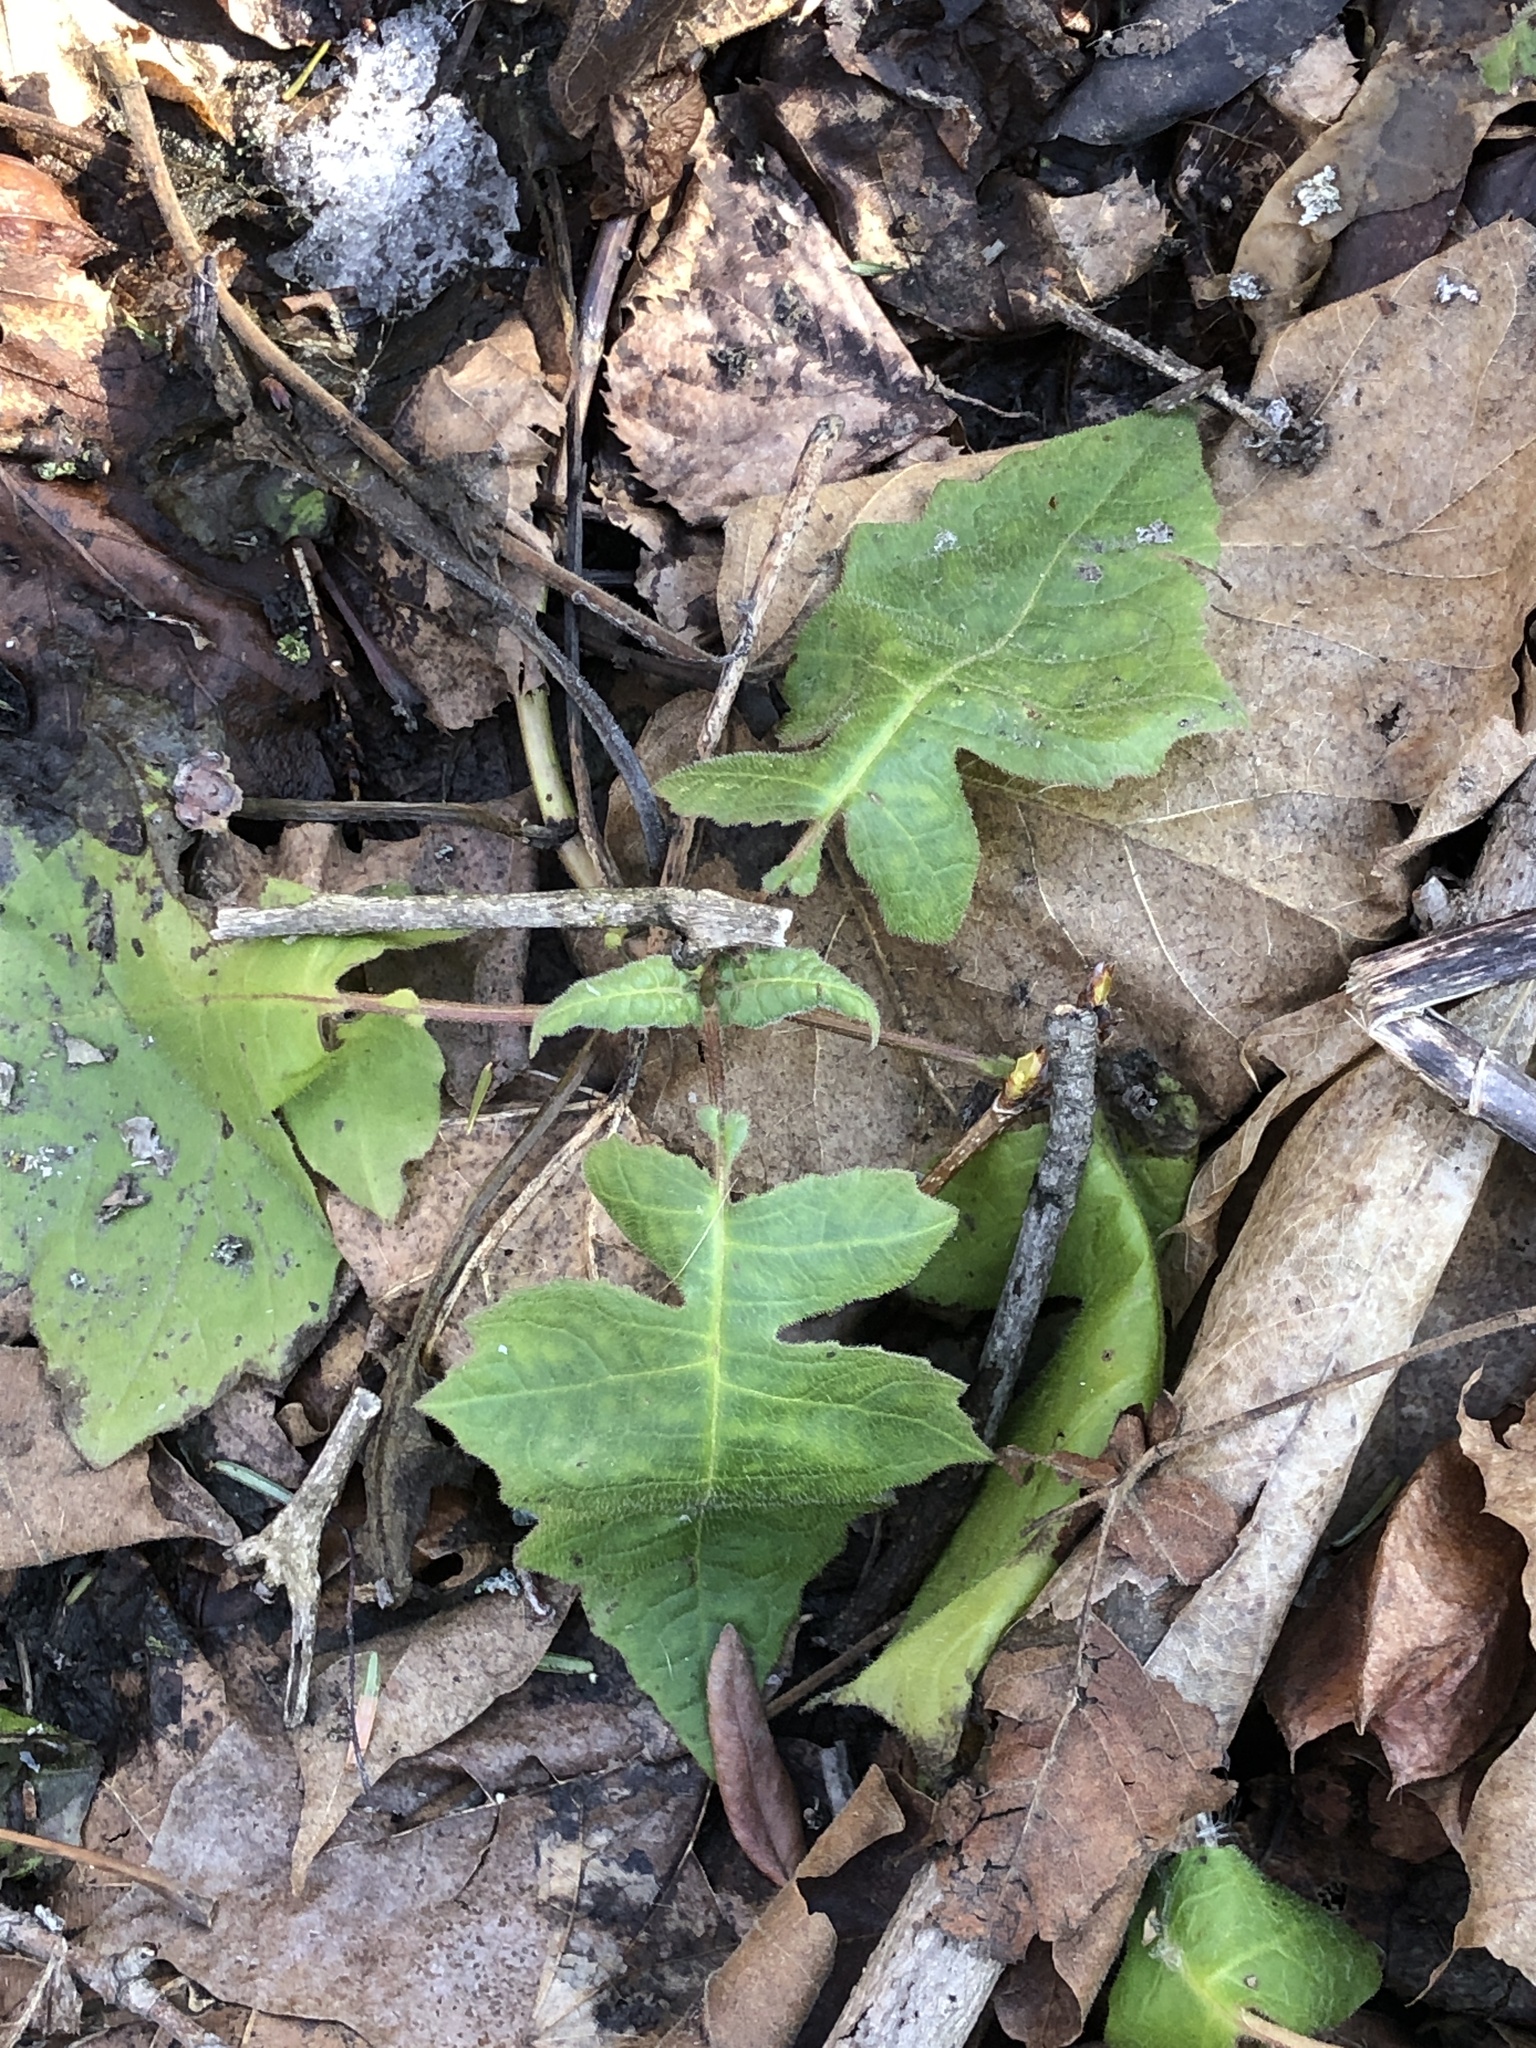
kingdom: Plantae
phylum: Tracheophyta
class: Magnoliopsida
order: Asterales
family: Asteraceae
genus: Polymnia
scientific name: Polymnia canadensis
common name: Pale-flowered leafcup
